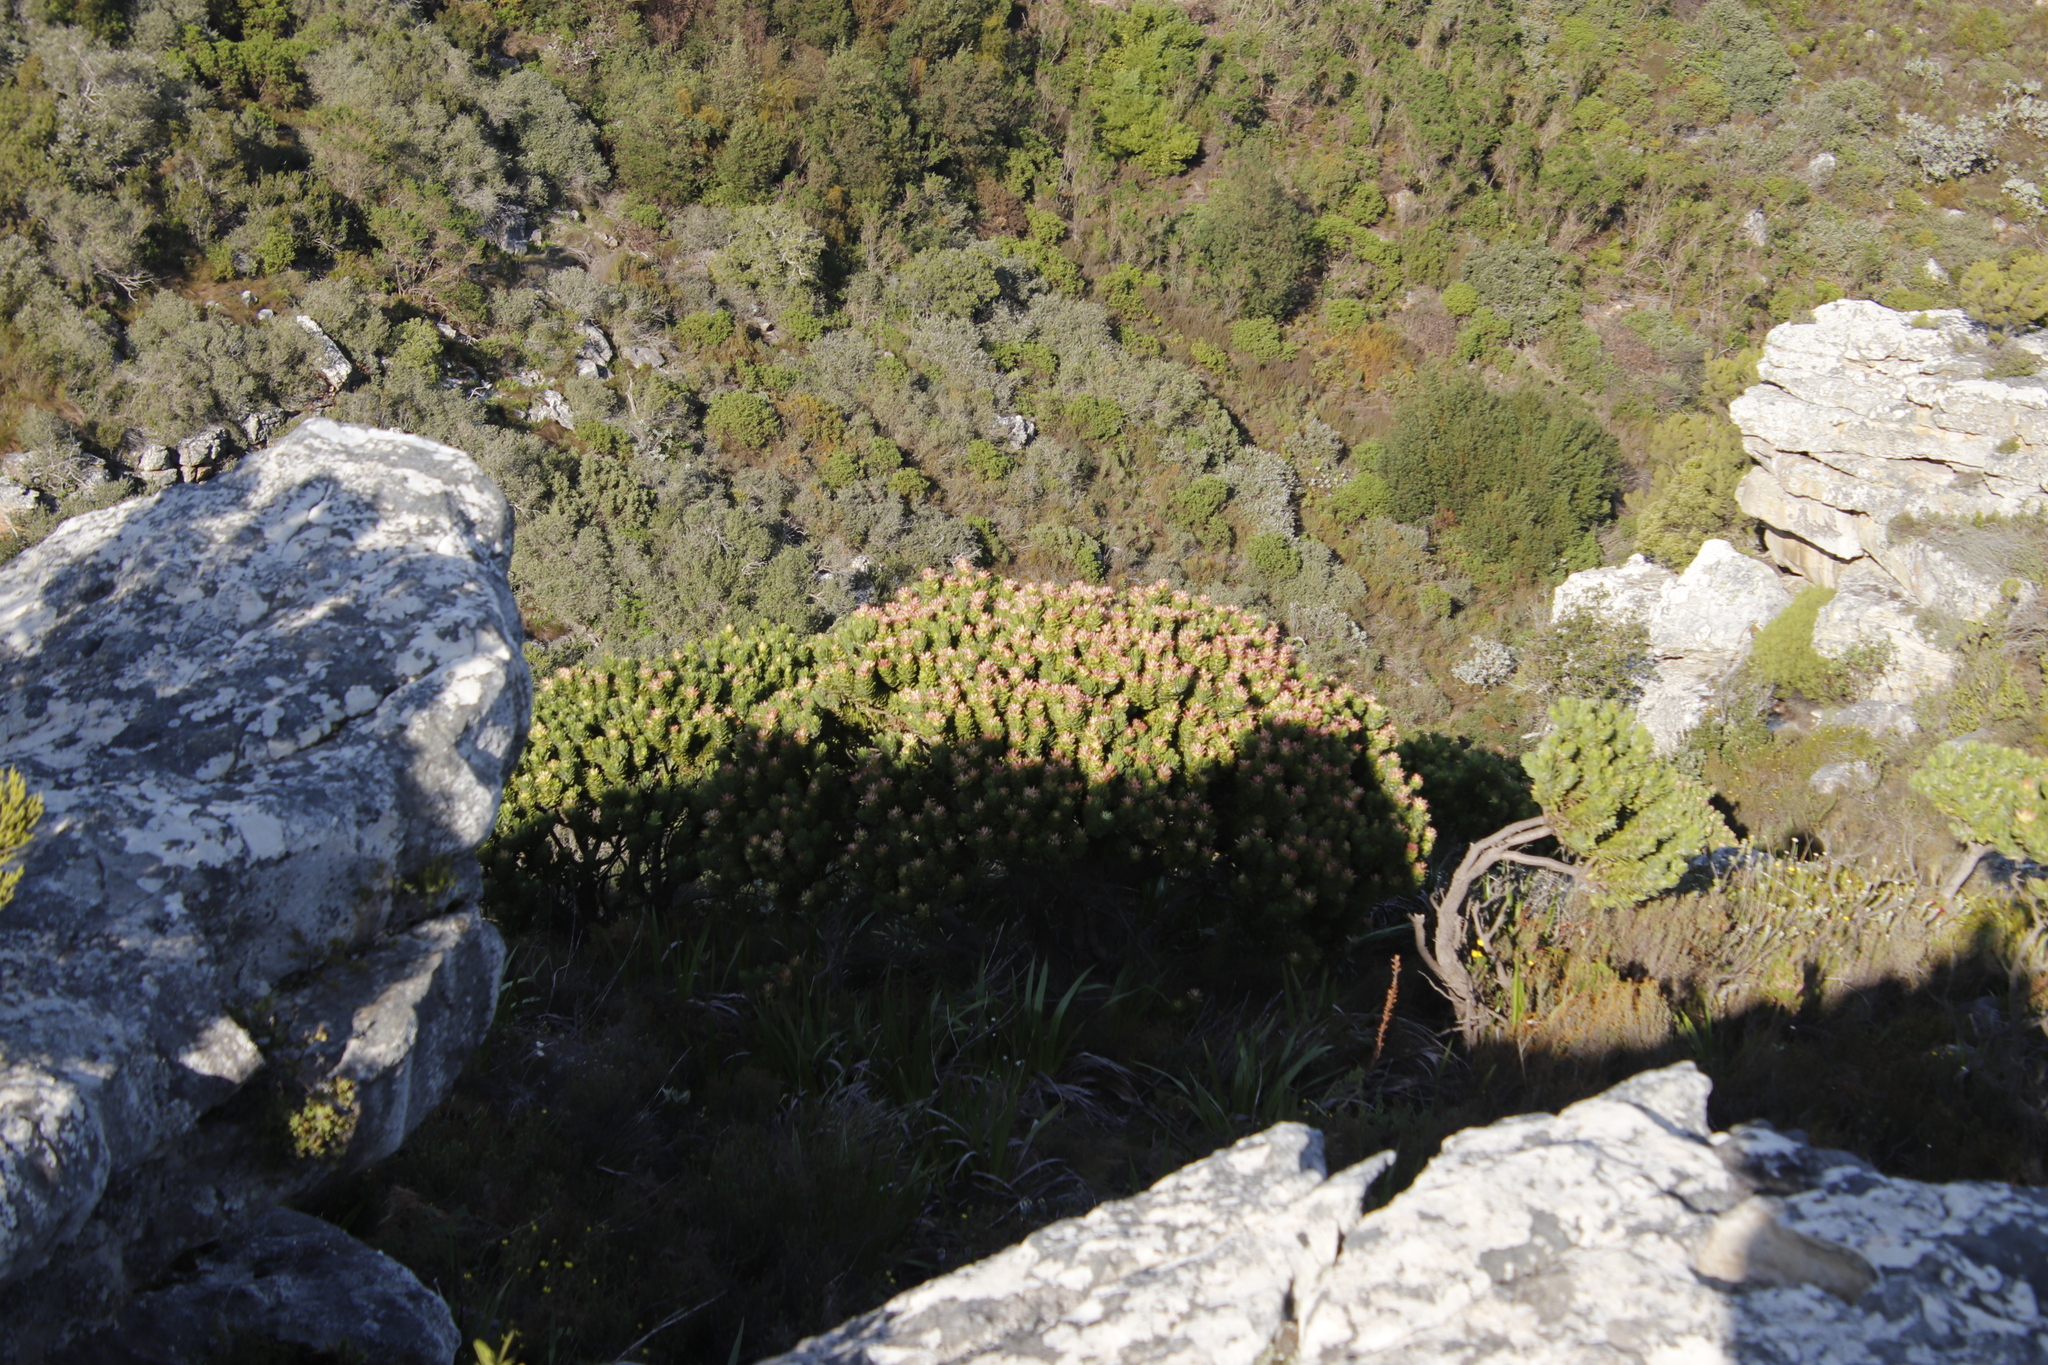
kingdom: Plantae
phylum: Tracheophyta
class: Magnoliopsida
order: Proteales
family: Proteaceae
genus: Mimetes
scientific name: Mimetes fimbriifolius
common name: Fringed bottlebrush
